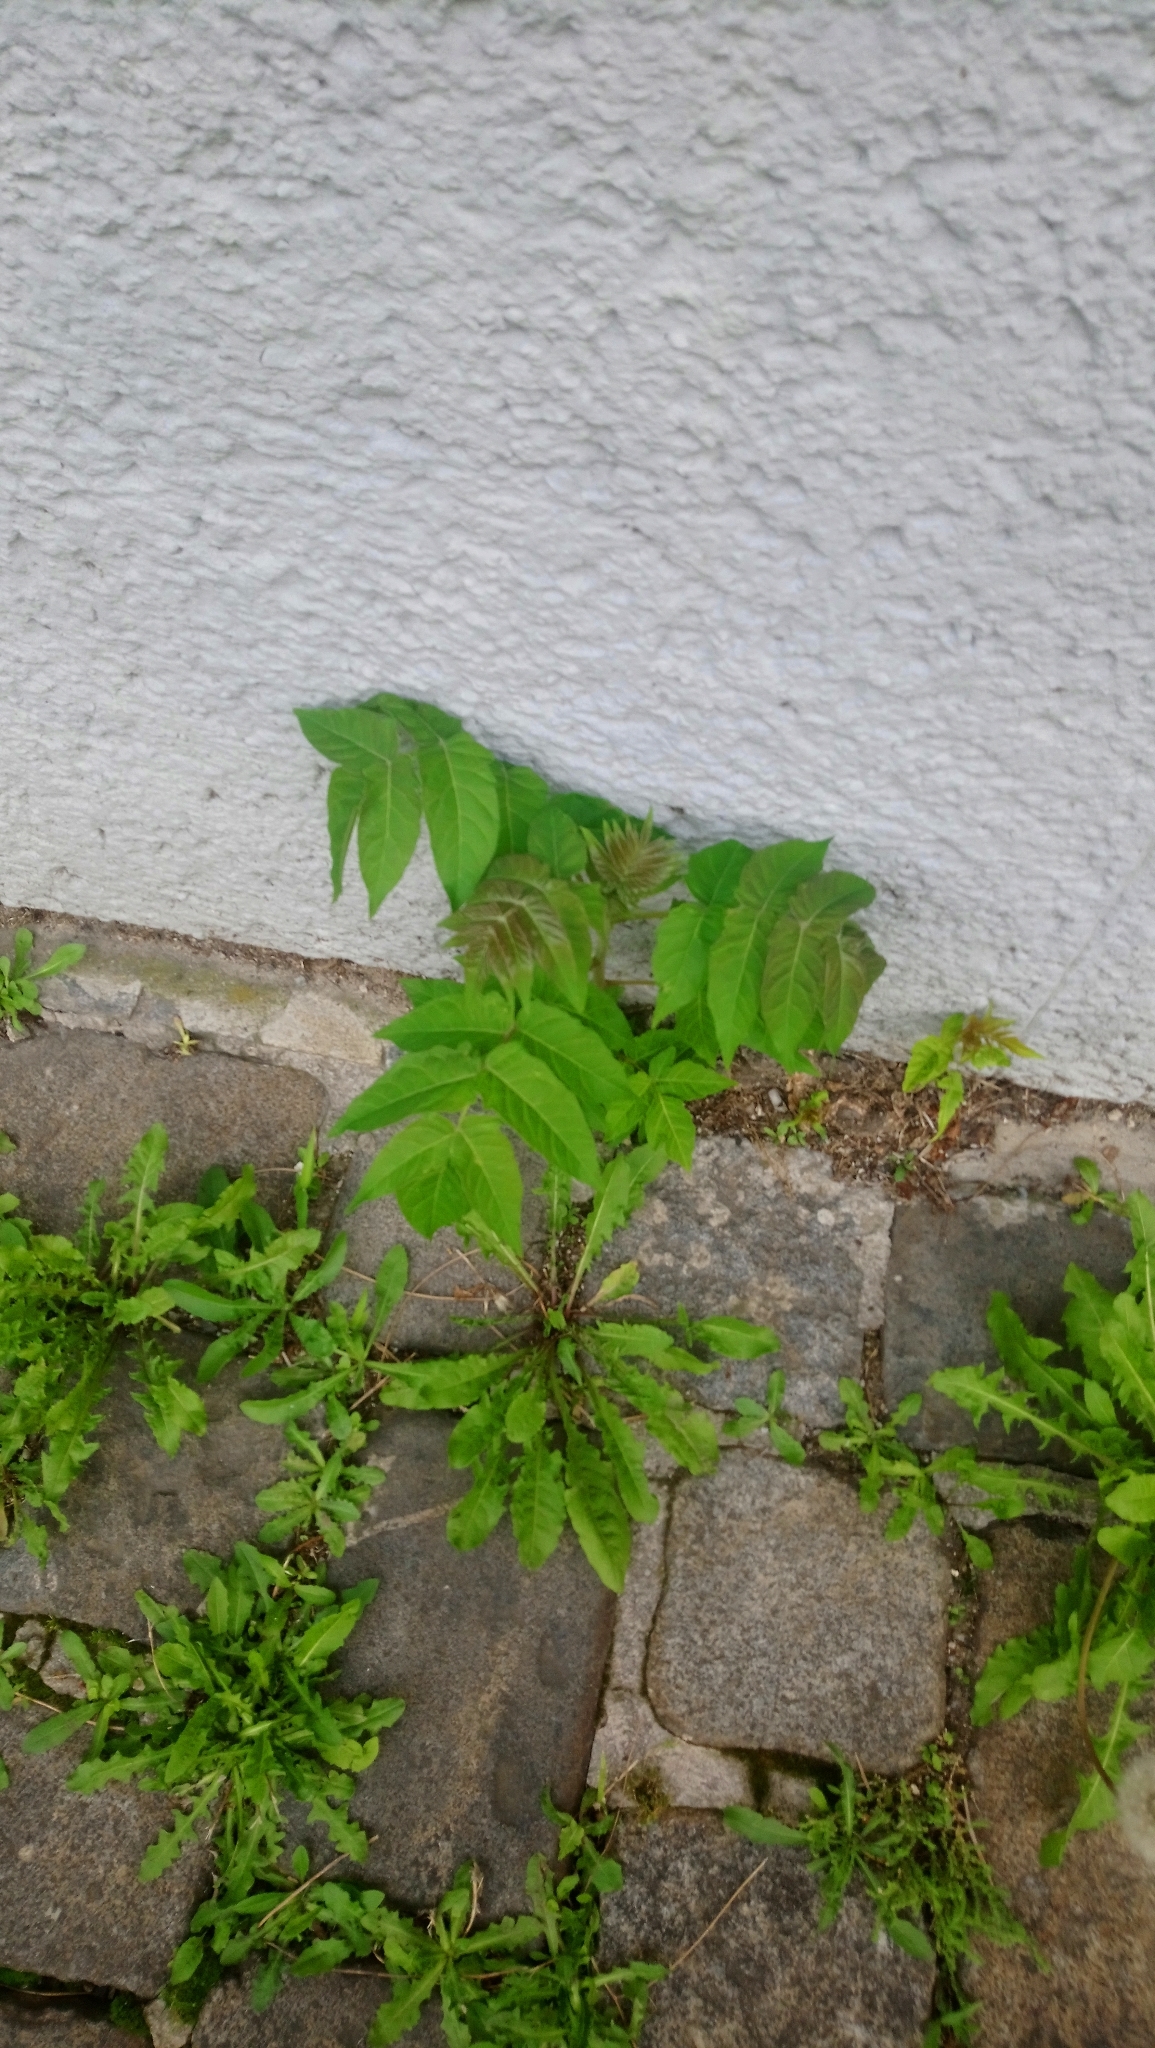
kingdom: Plantae
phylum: Tracheophyta
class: Magnoliopsida
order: Sapindales
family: Simaroubaceae
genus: Ailanthus
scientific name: Ailanthus altissima
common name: Tree-of-heaven
